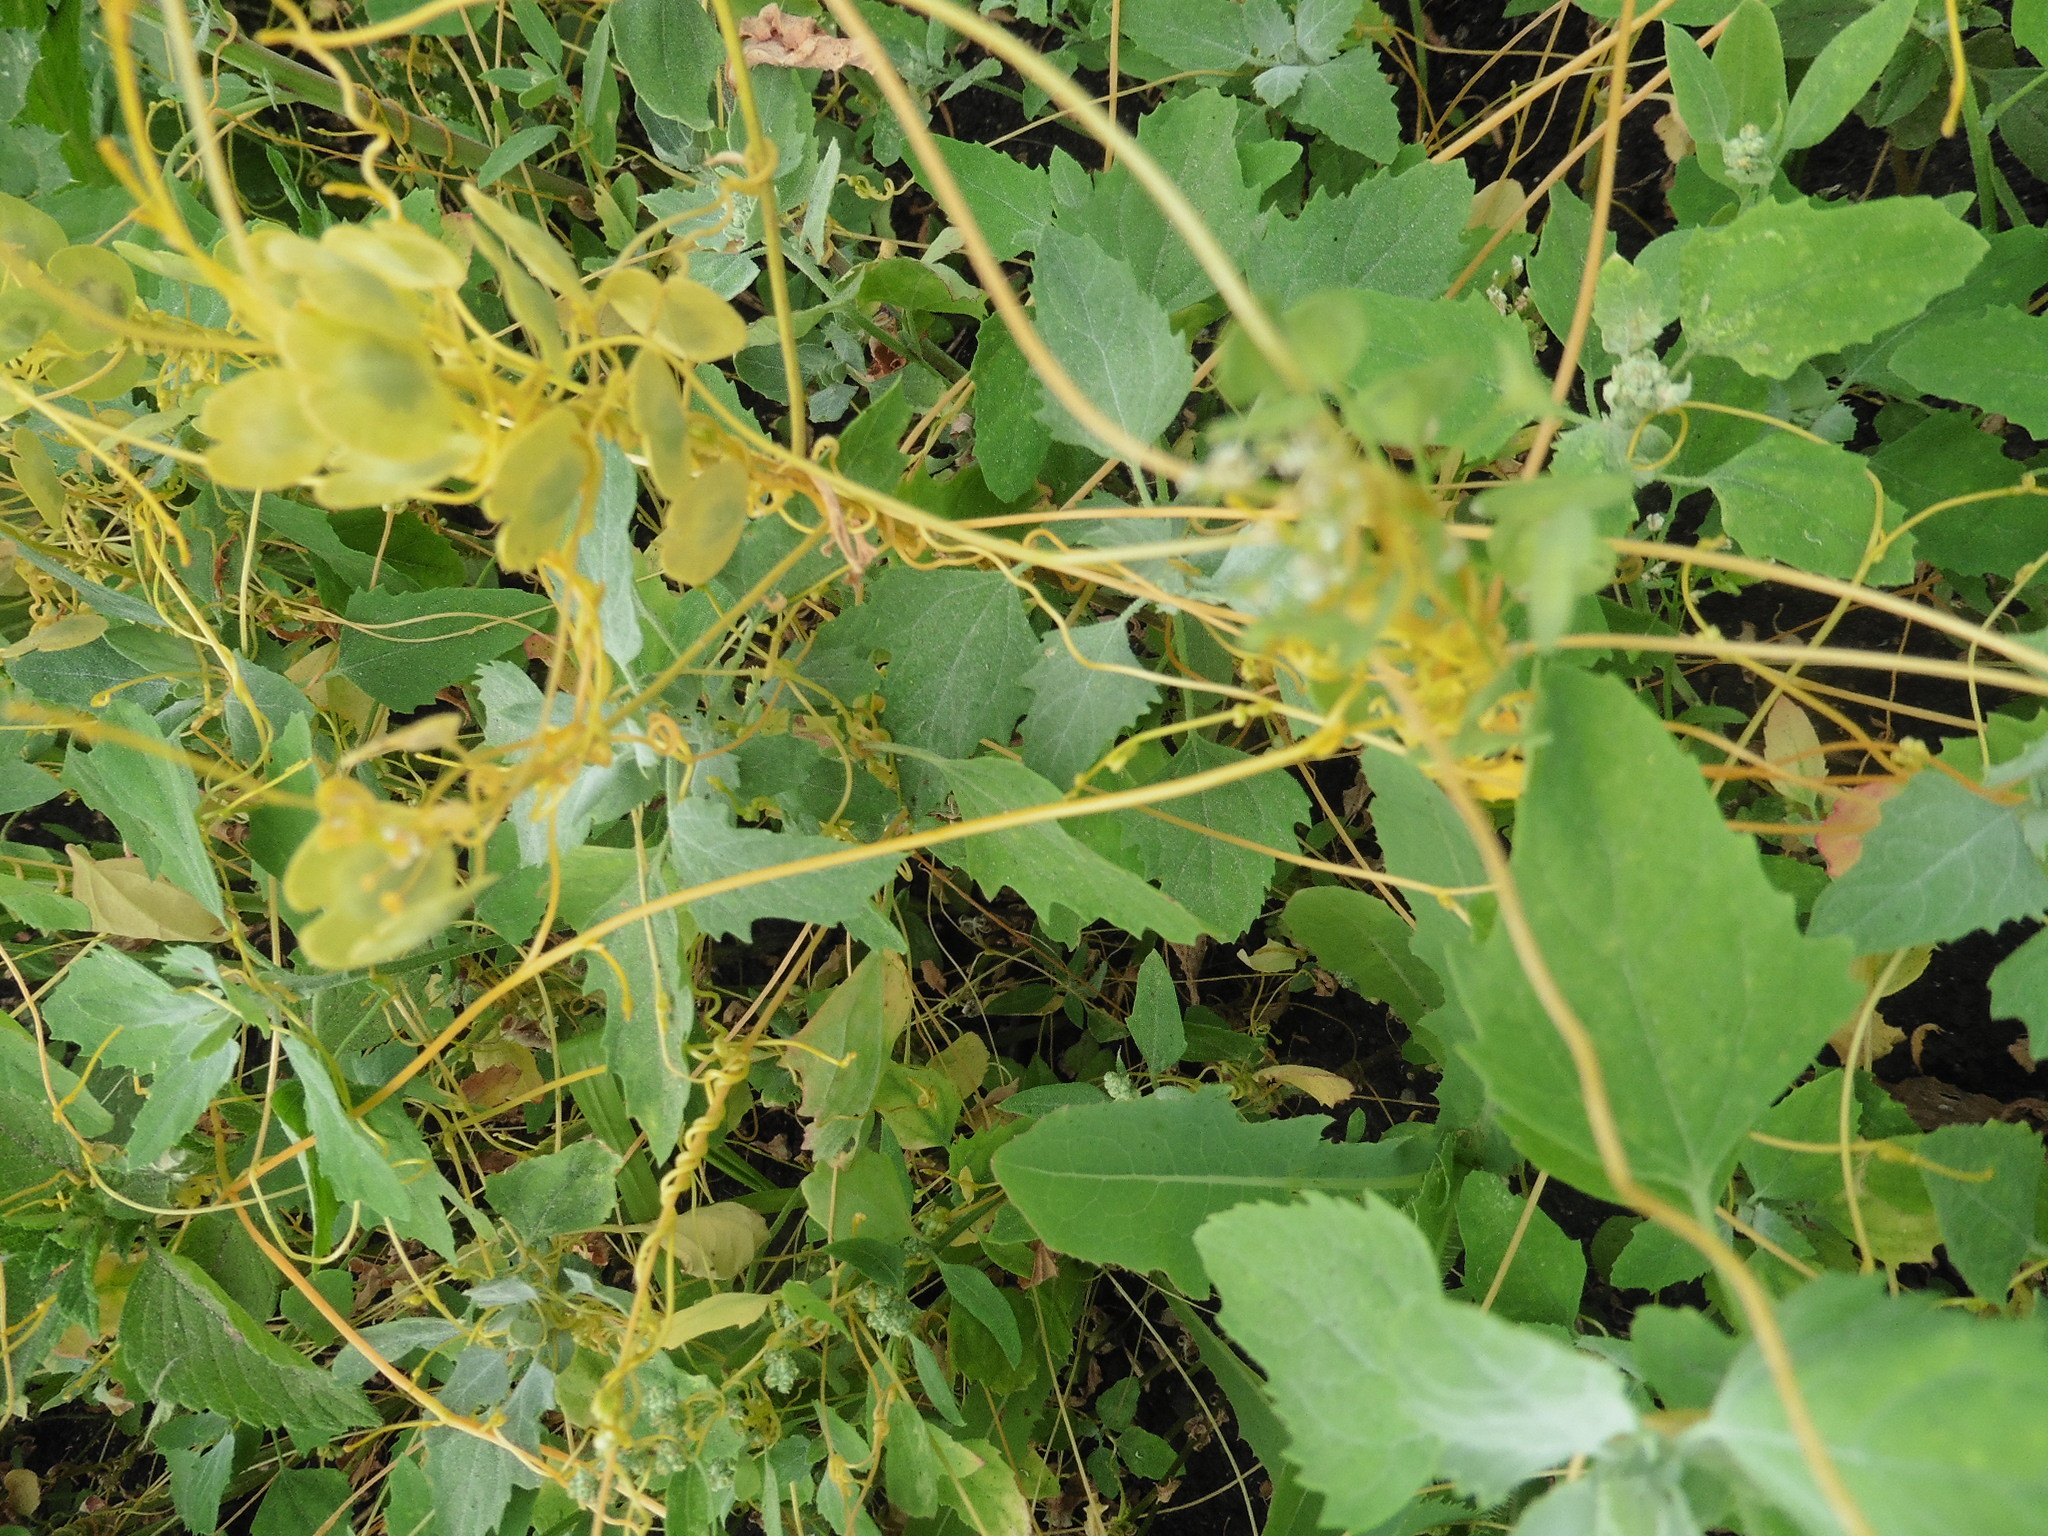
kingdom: Plantae
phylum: Tracheophyta
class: Magnoliopsida
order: Solanales
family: Convolvulaceae
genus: Cuscuta
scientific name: Cuscuta campestris
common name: Yellow dodder
